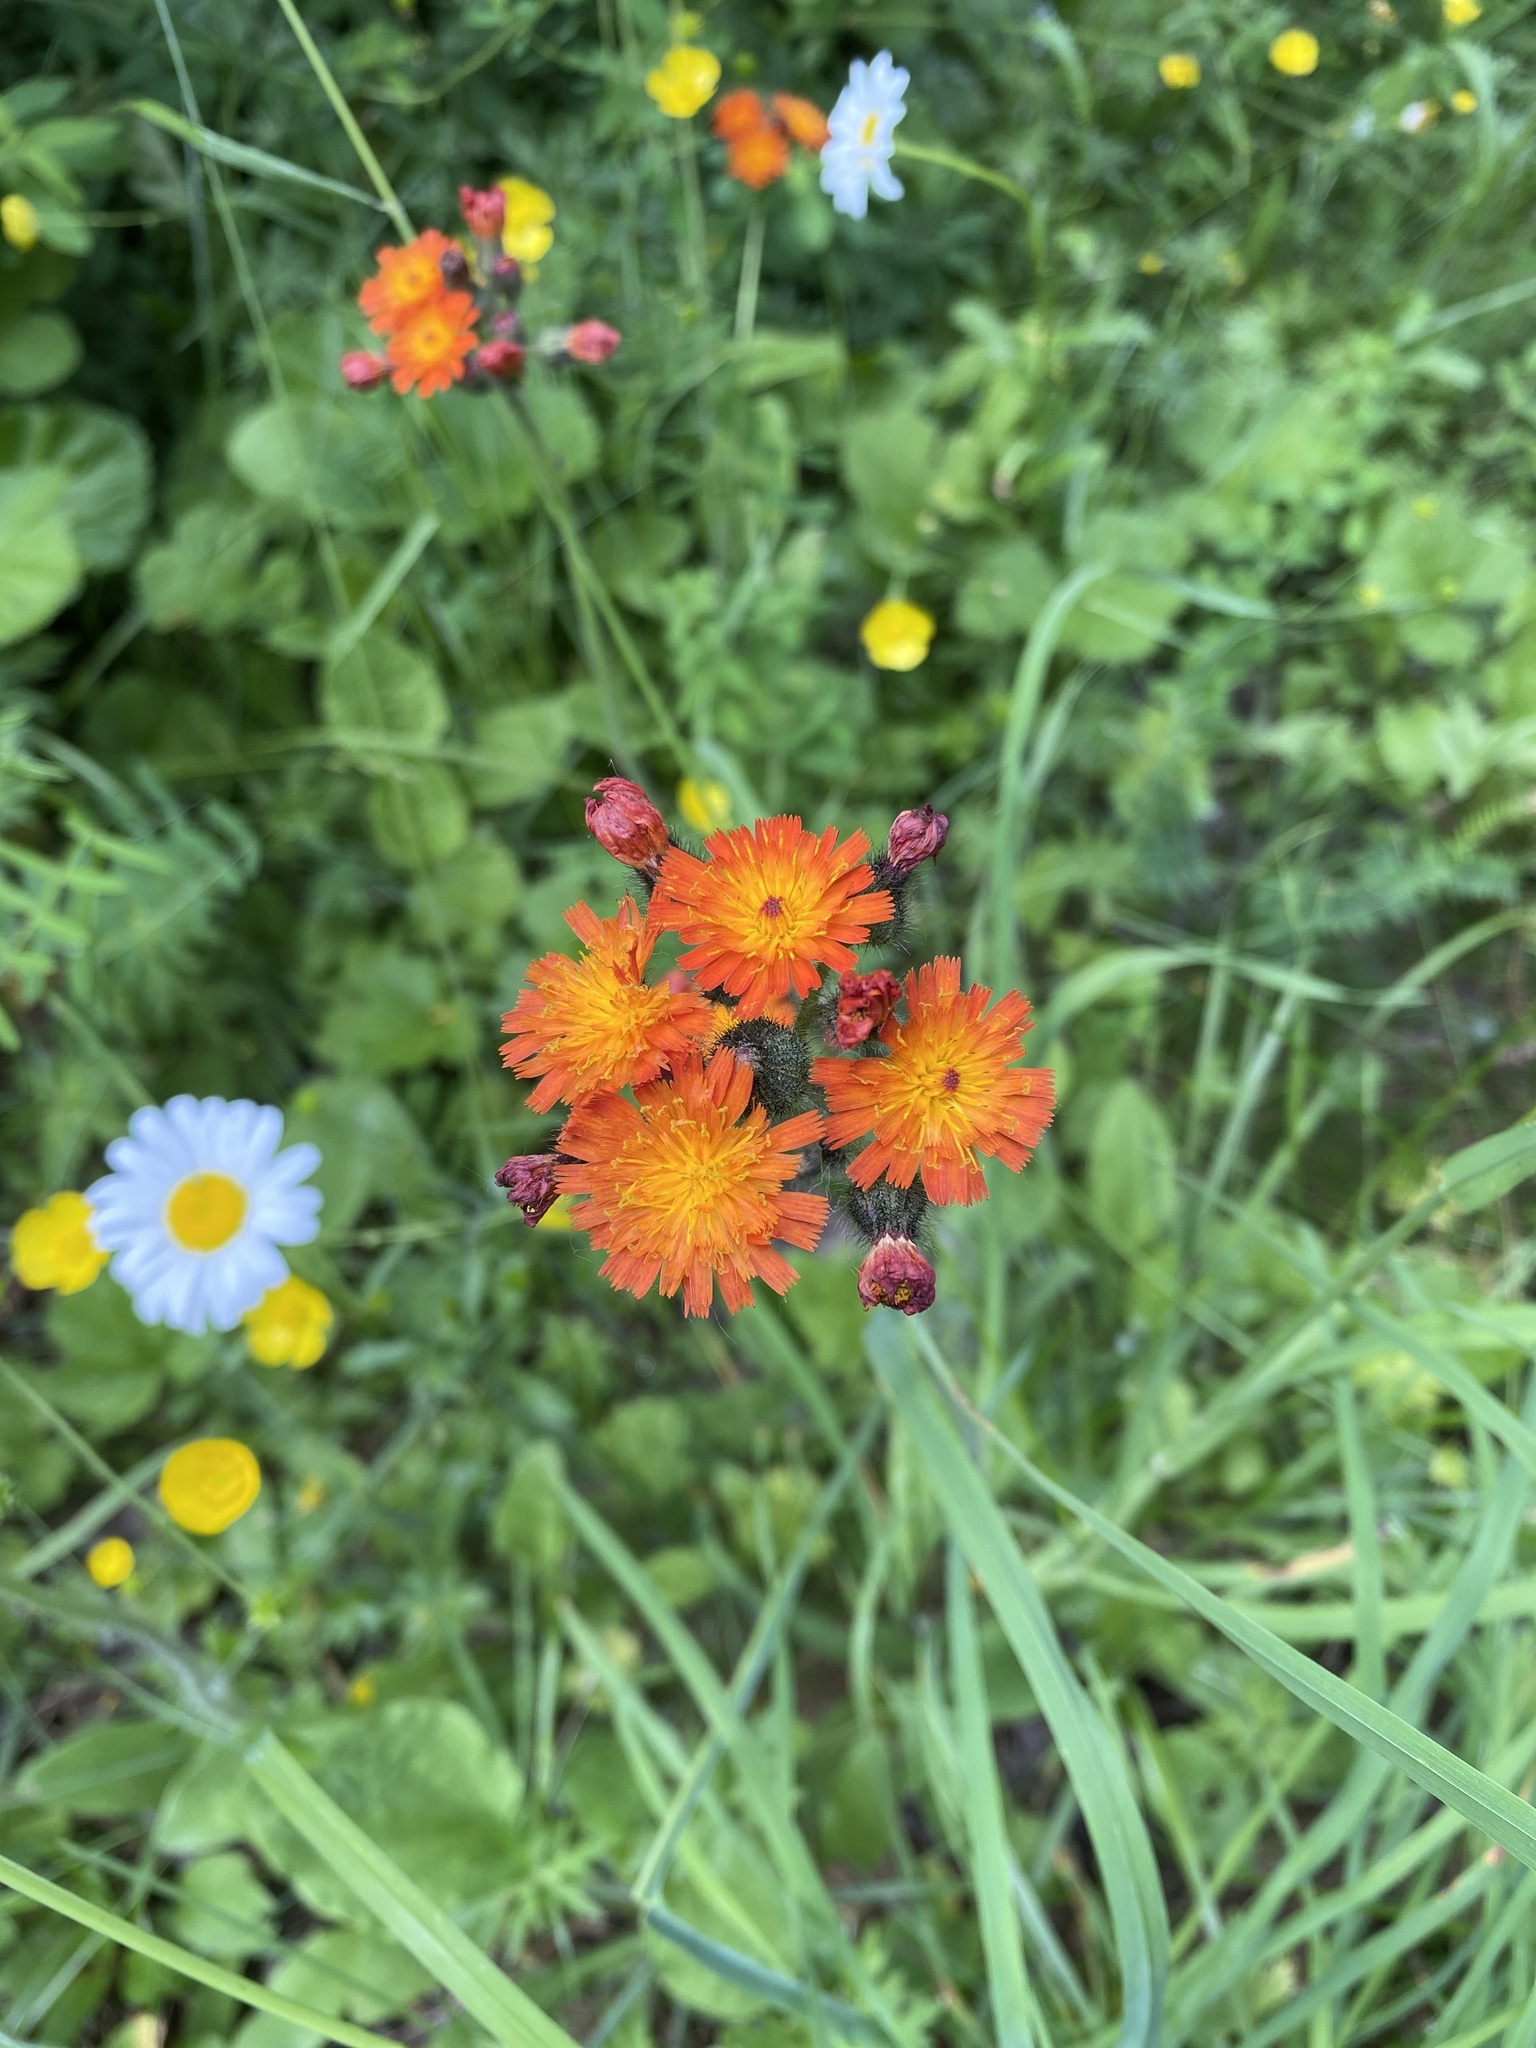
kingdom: Plantae
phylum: Tracheophyta
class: Magnoliopsida
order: Asterales
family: Asteraceae
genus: Pilosella
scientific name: Pilosella aurantiaca
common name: Fox-and-cubs
